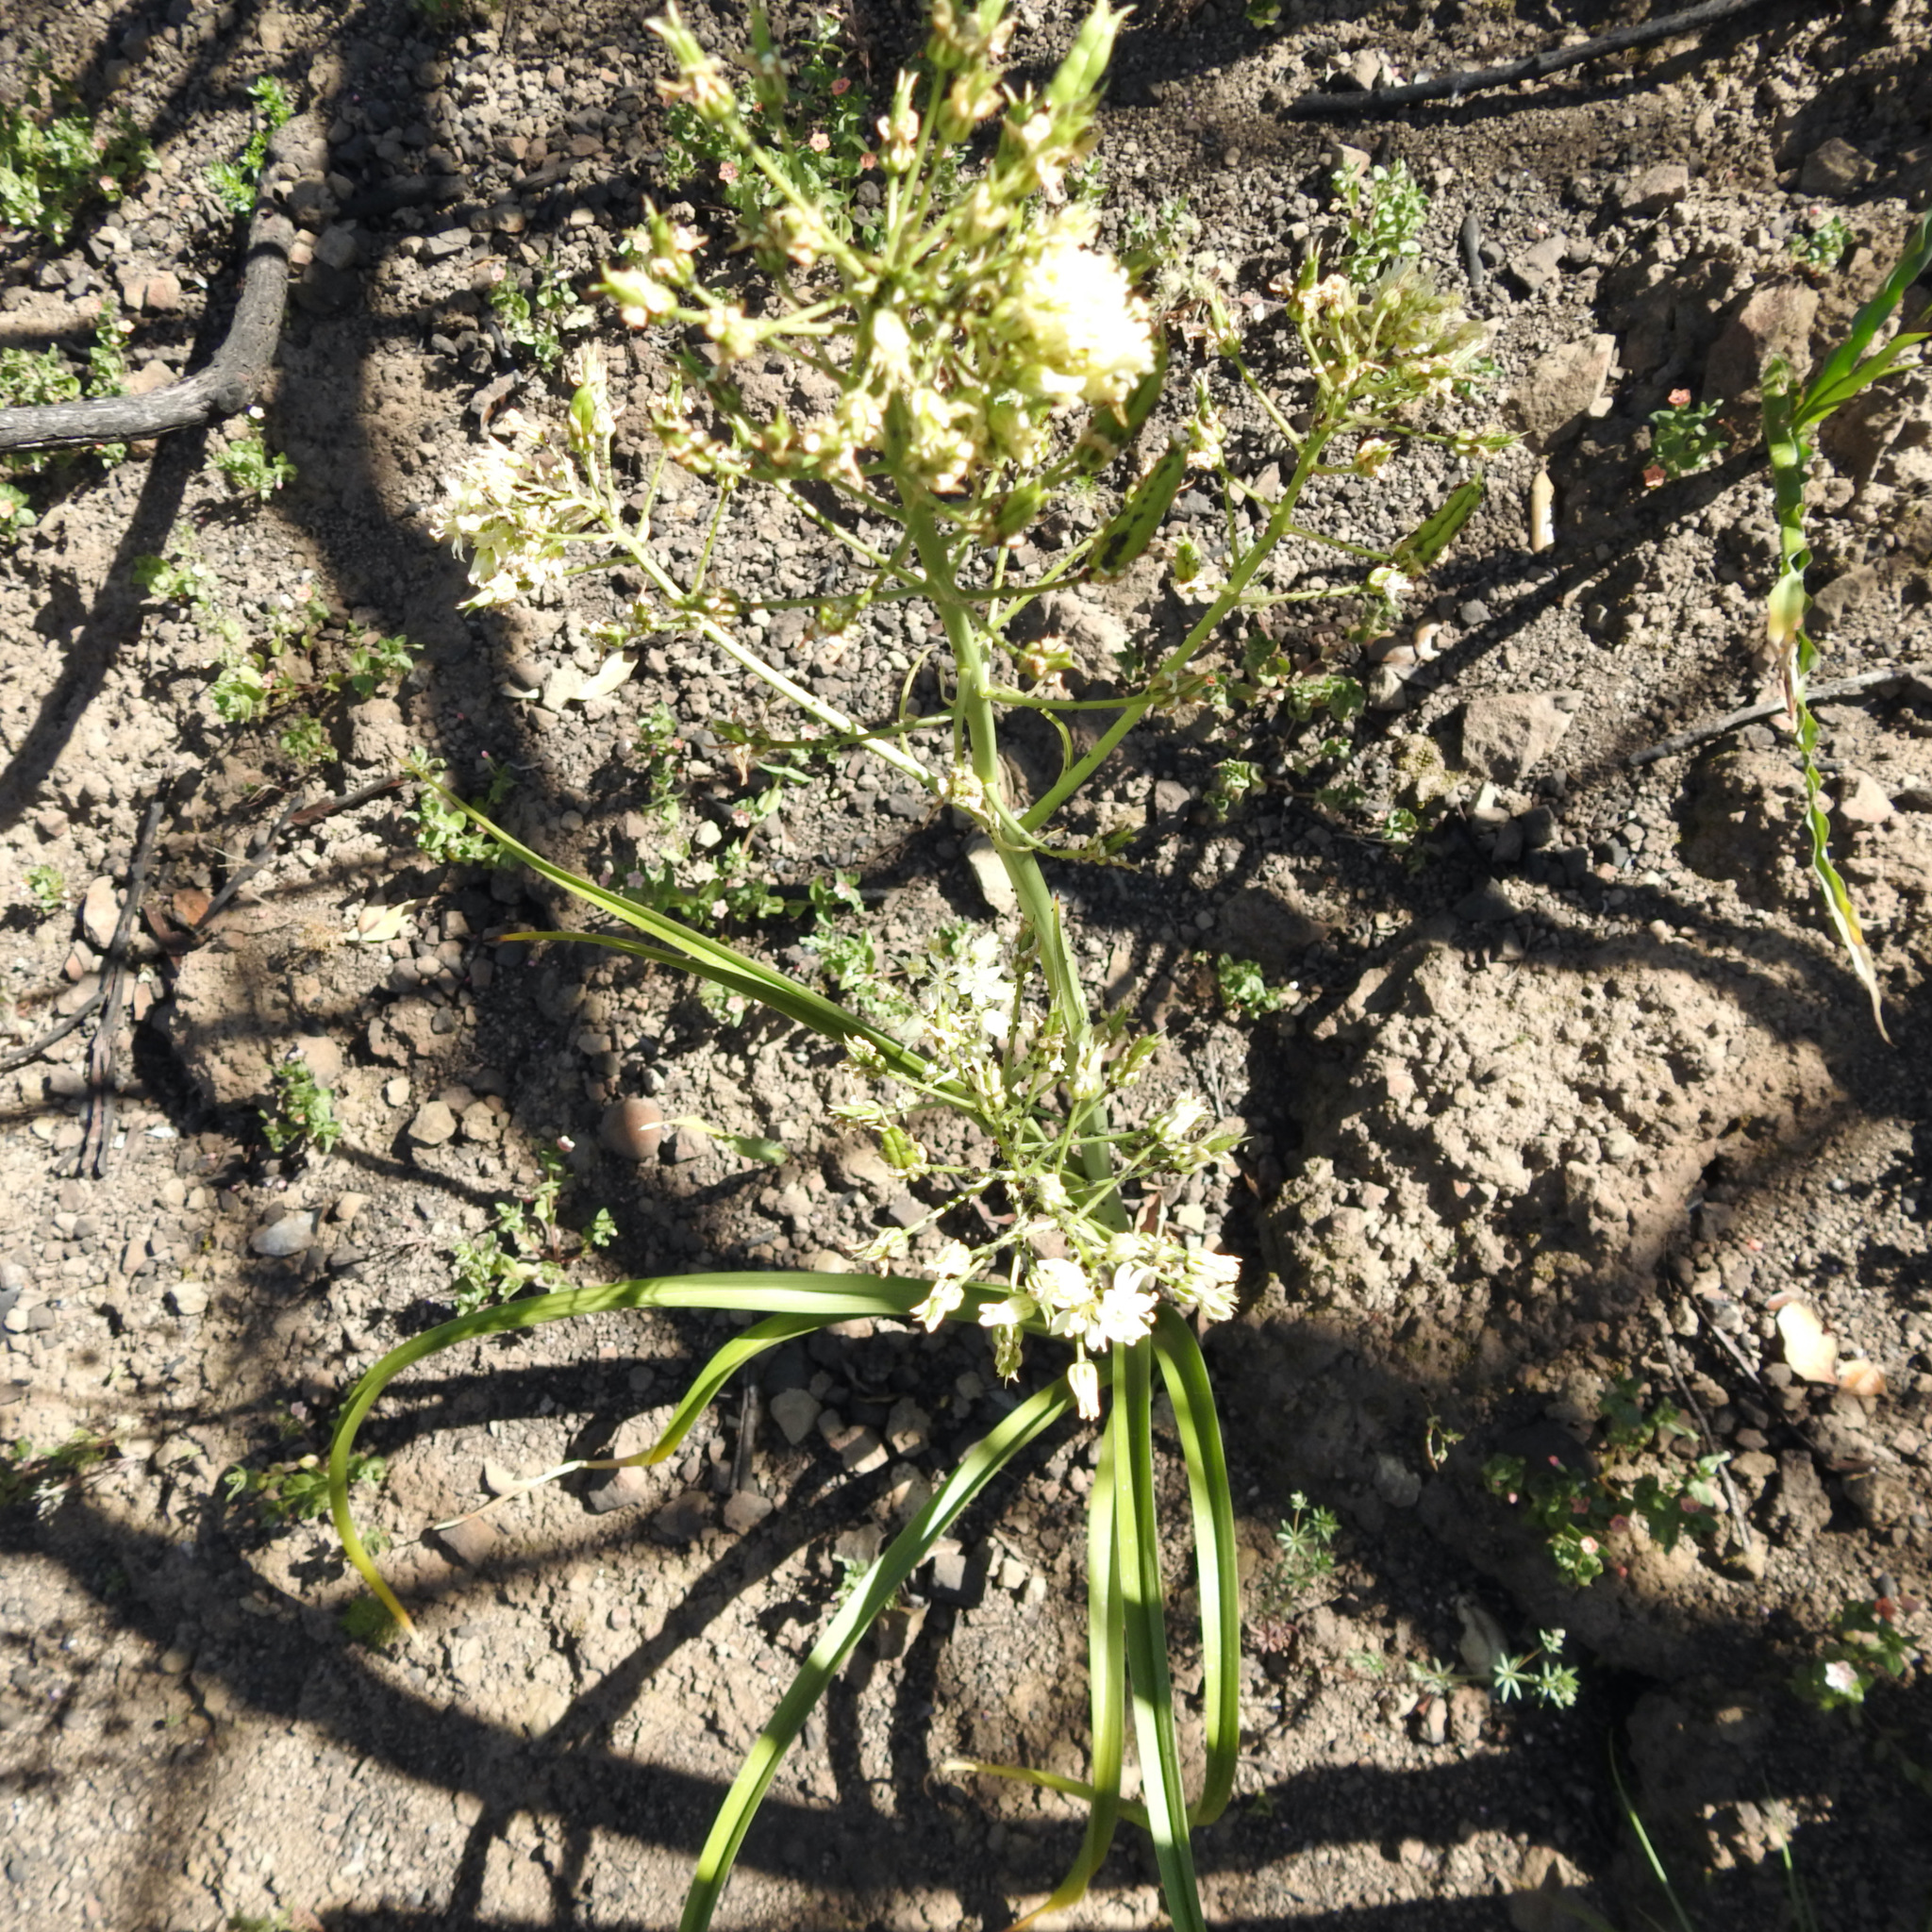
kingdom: Plantae
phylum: Tracheophyta
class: Liliopsida
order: Liliales
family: Melanthiaceae
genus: Toxicoscordion
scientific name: Toxicoscordion fremontii
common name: Fremont's death camas
